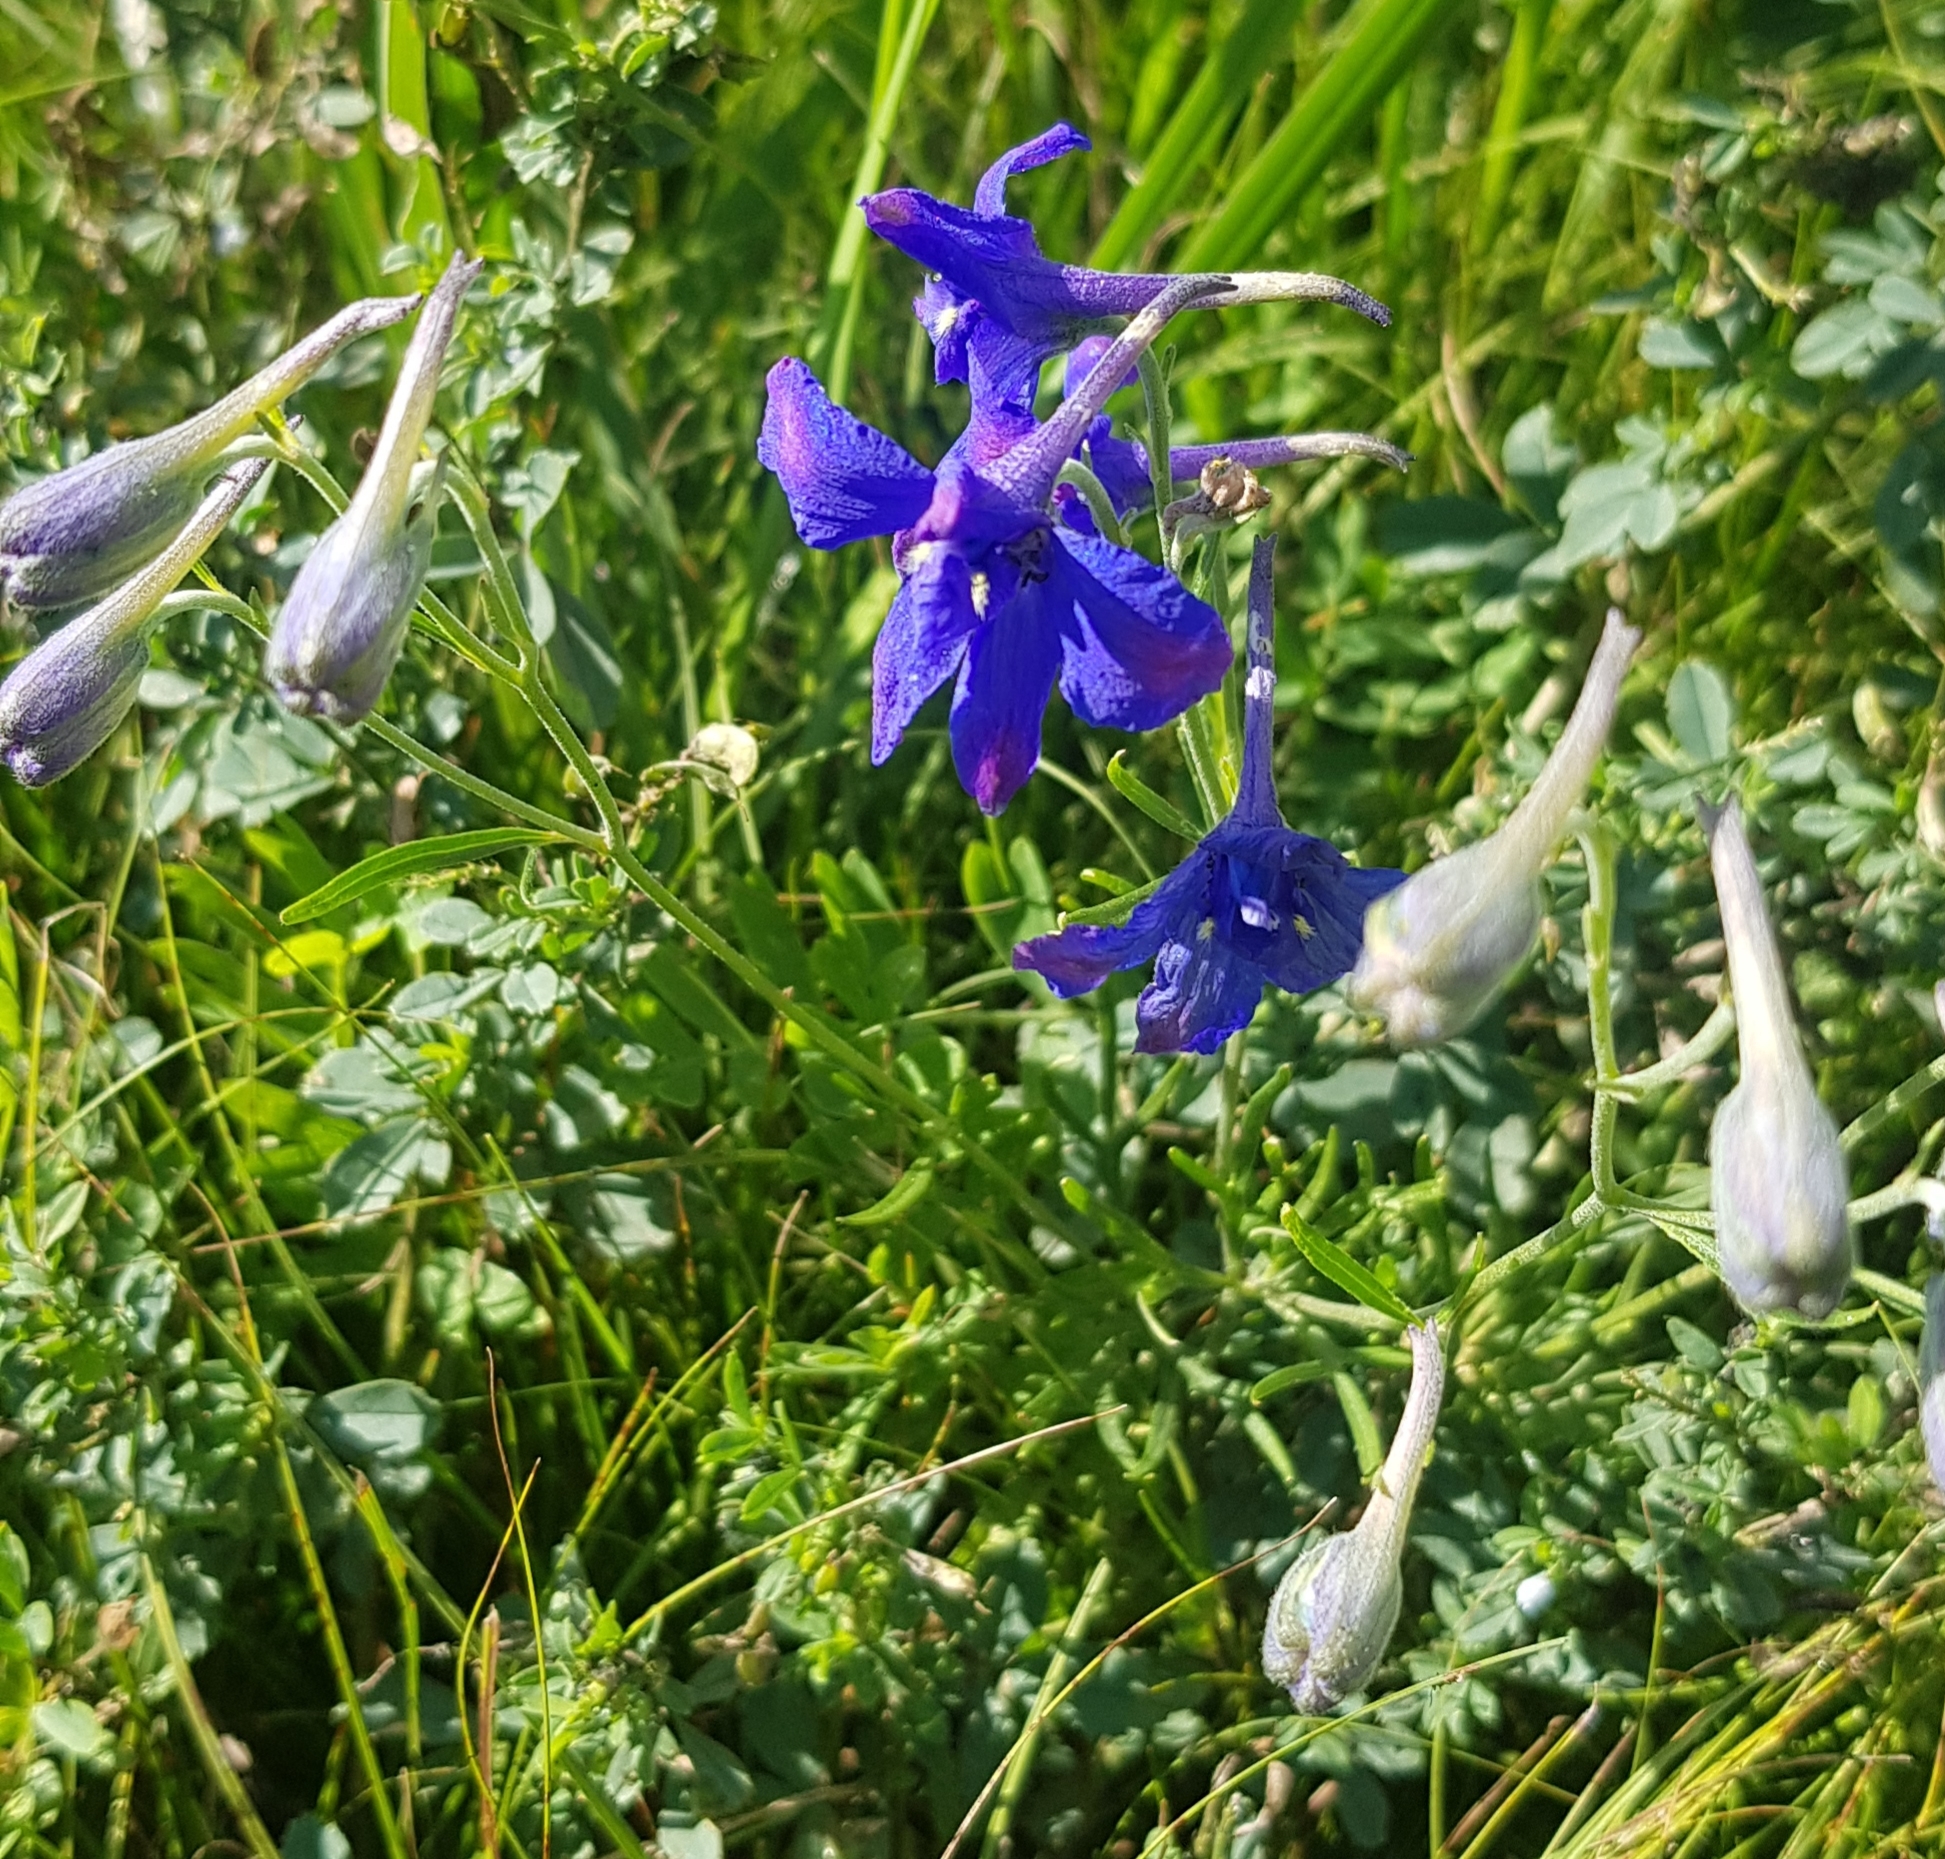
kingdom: Plantae
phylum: Tracheophyta
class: Magnoliopsida
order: Ranunculales
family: Ranunculaceae
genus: Delphinium
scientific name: Delphinium grandiflorum
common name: Siberian larkspur
